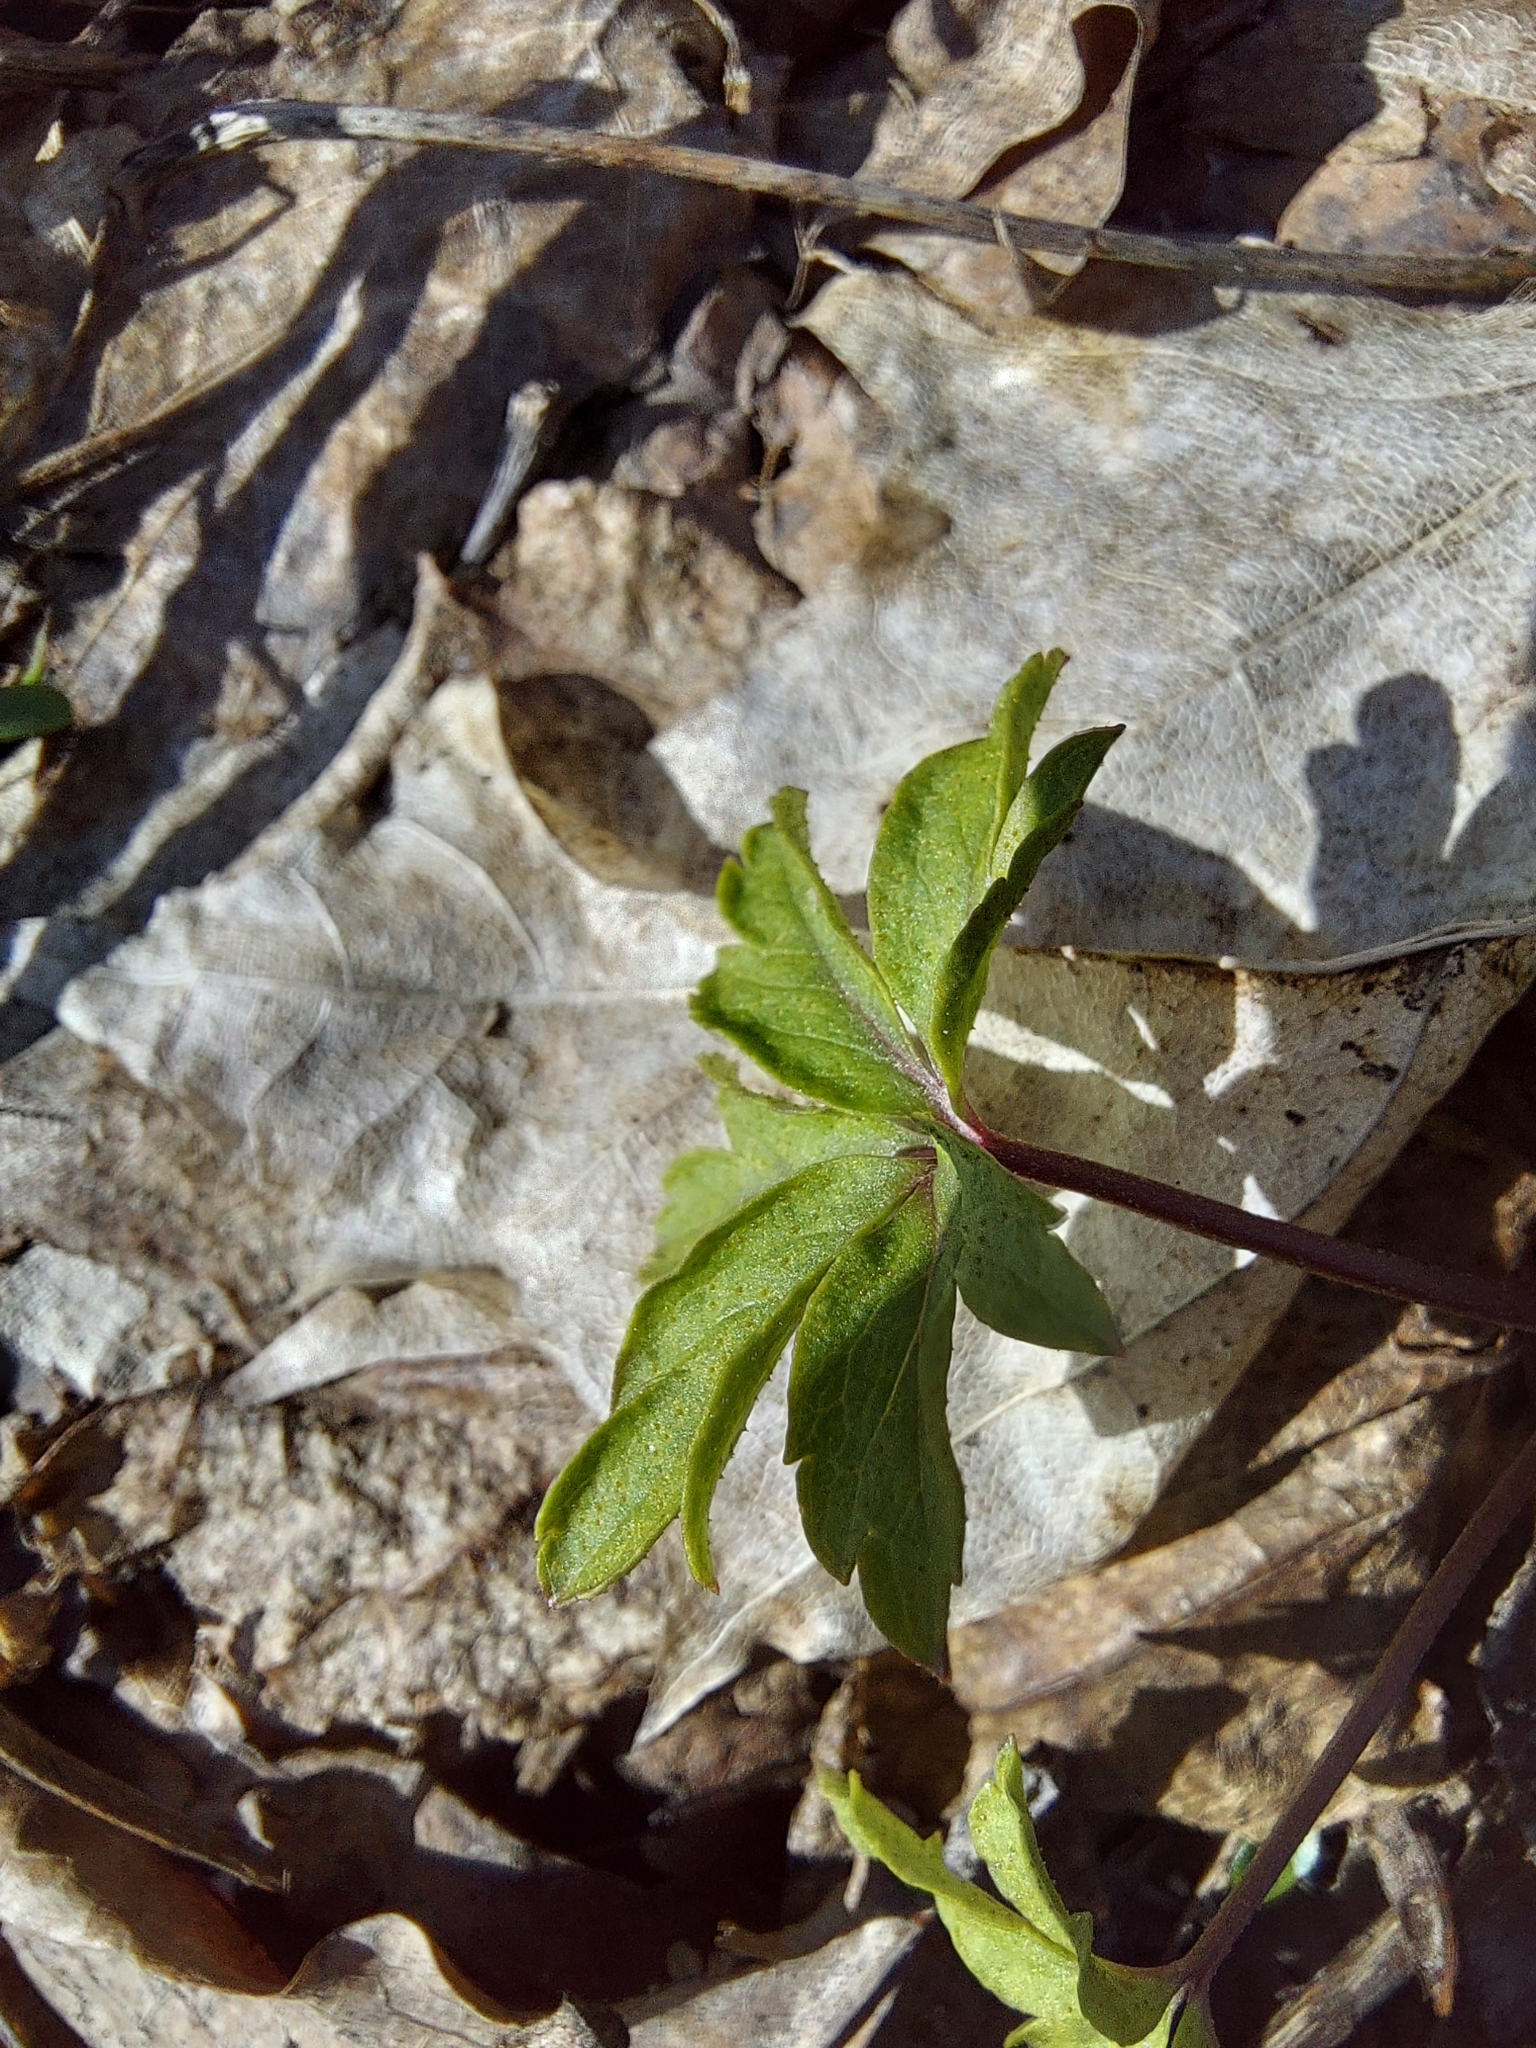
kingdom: Plantae
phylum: Tracheophyta
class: Magnoliopsida
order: Ranunculales
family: Ranunculaceae
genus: Anemone
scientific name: Anemone ranunculoides
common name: Yellow anemone
